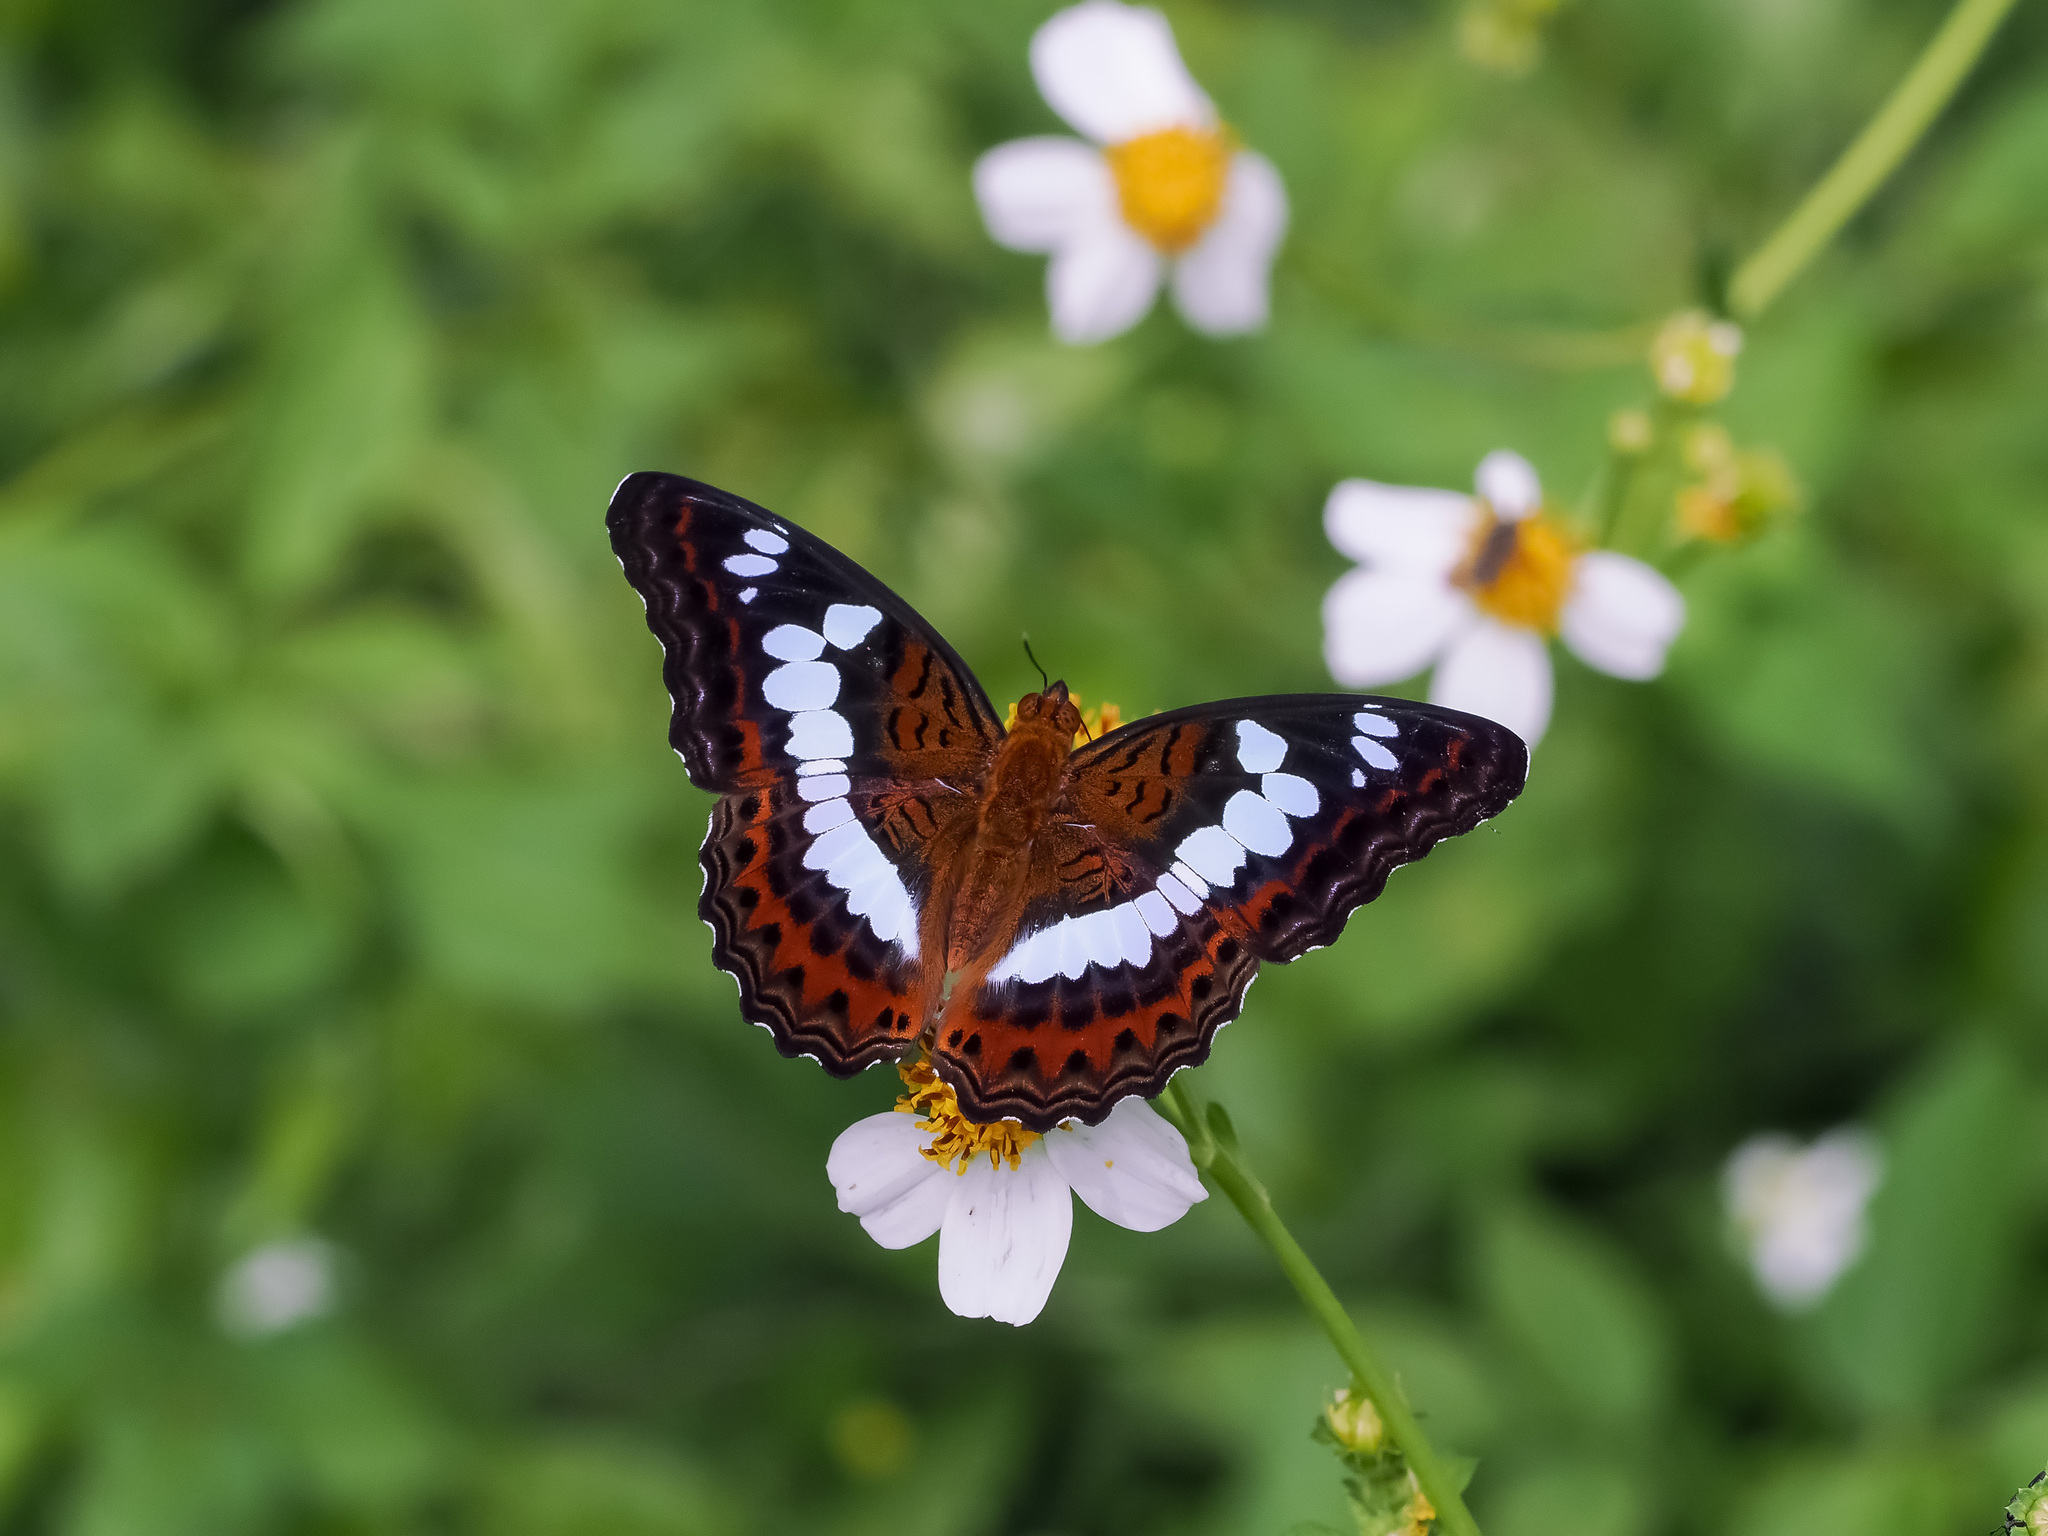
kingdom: Animalia
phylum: Arthropoda
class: Insecta
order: Lepidoptera
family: Nymphalidae
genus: Limenitis
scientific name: Limenitis Moduza procris
